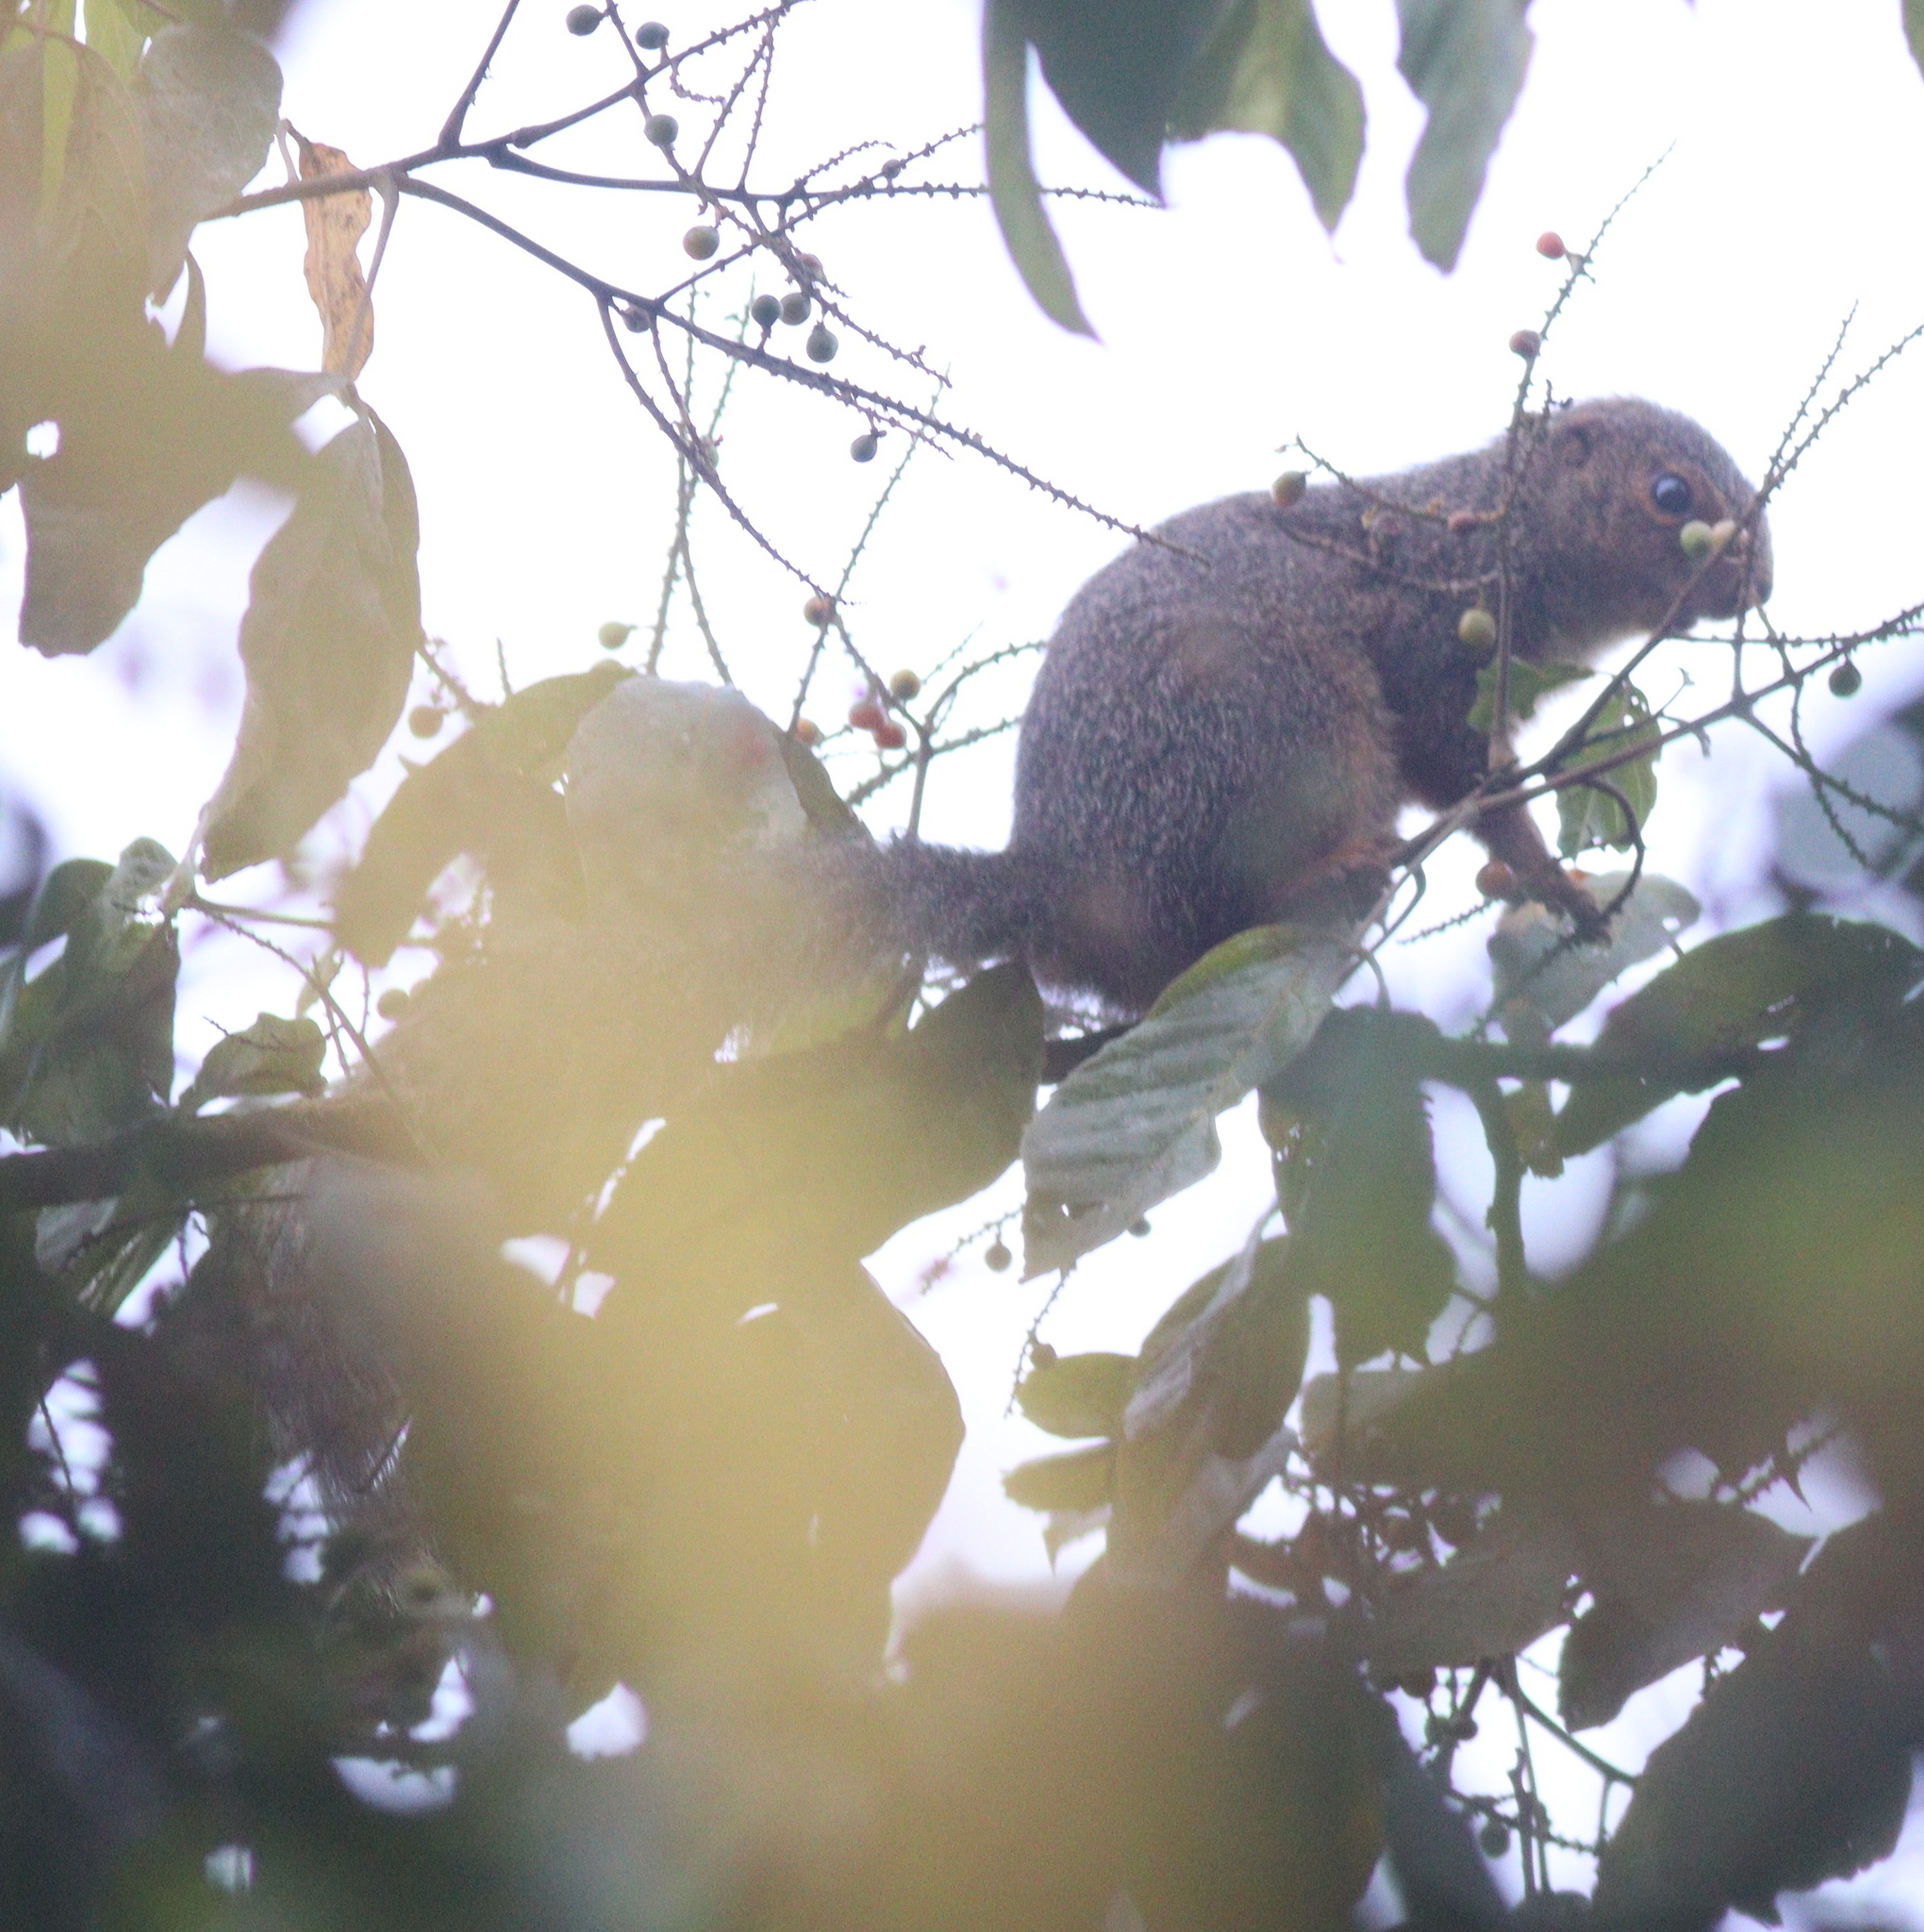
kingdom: Animalia
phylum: Chordata
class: Mammalia
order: Rodentia
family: Sciuridae
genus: Protoxerus
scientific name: Protoxerus stangeri
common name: Forest giant squirrel
